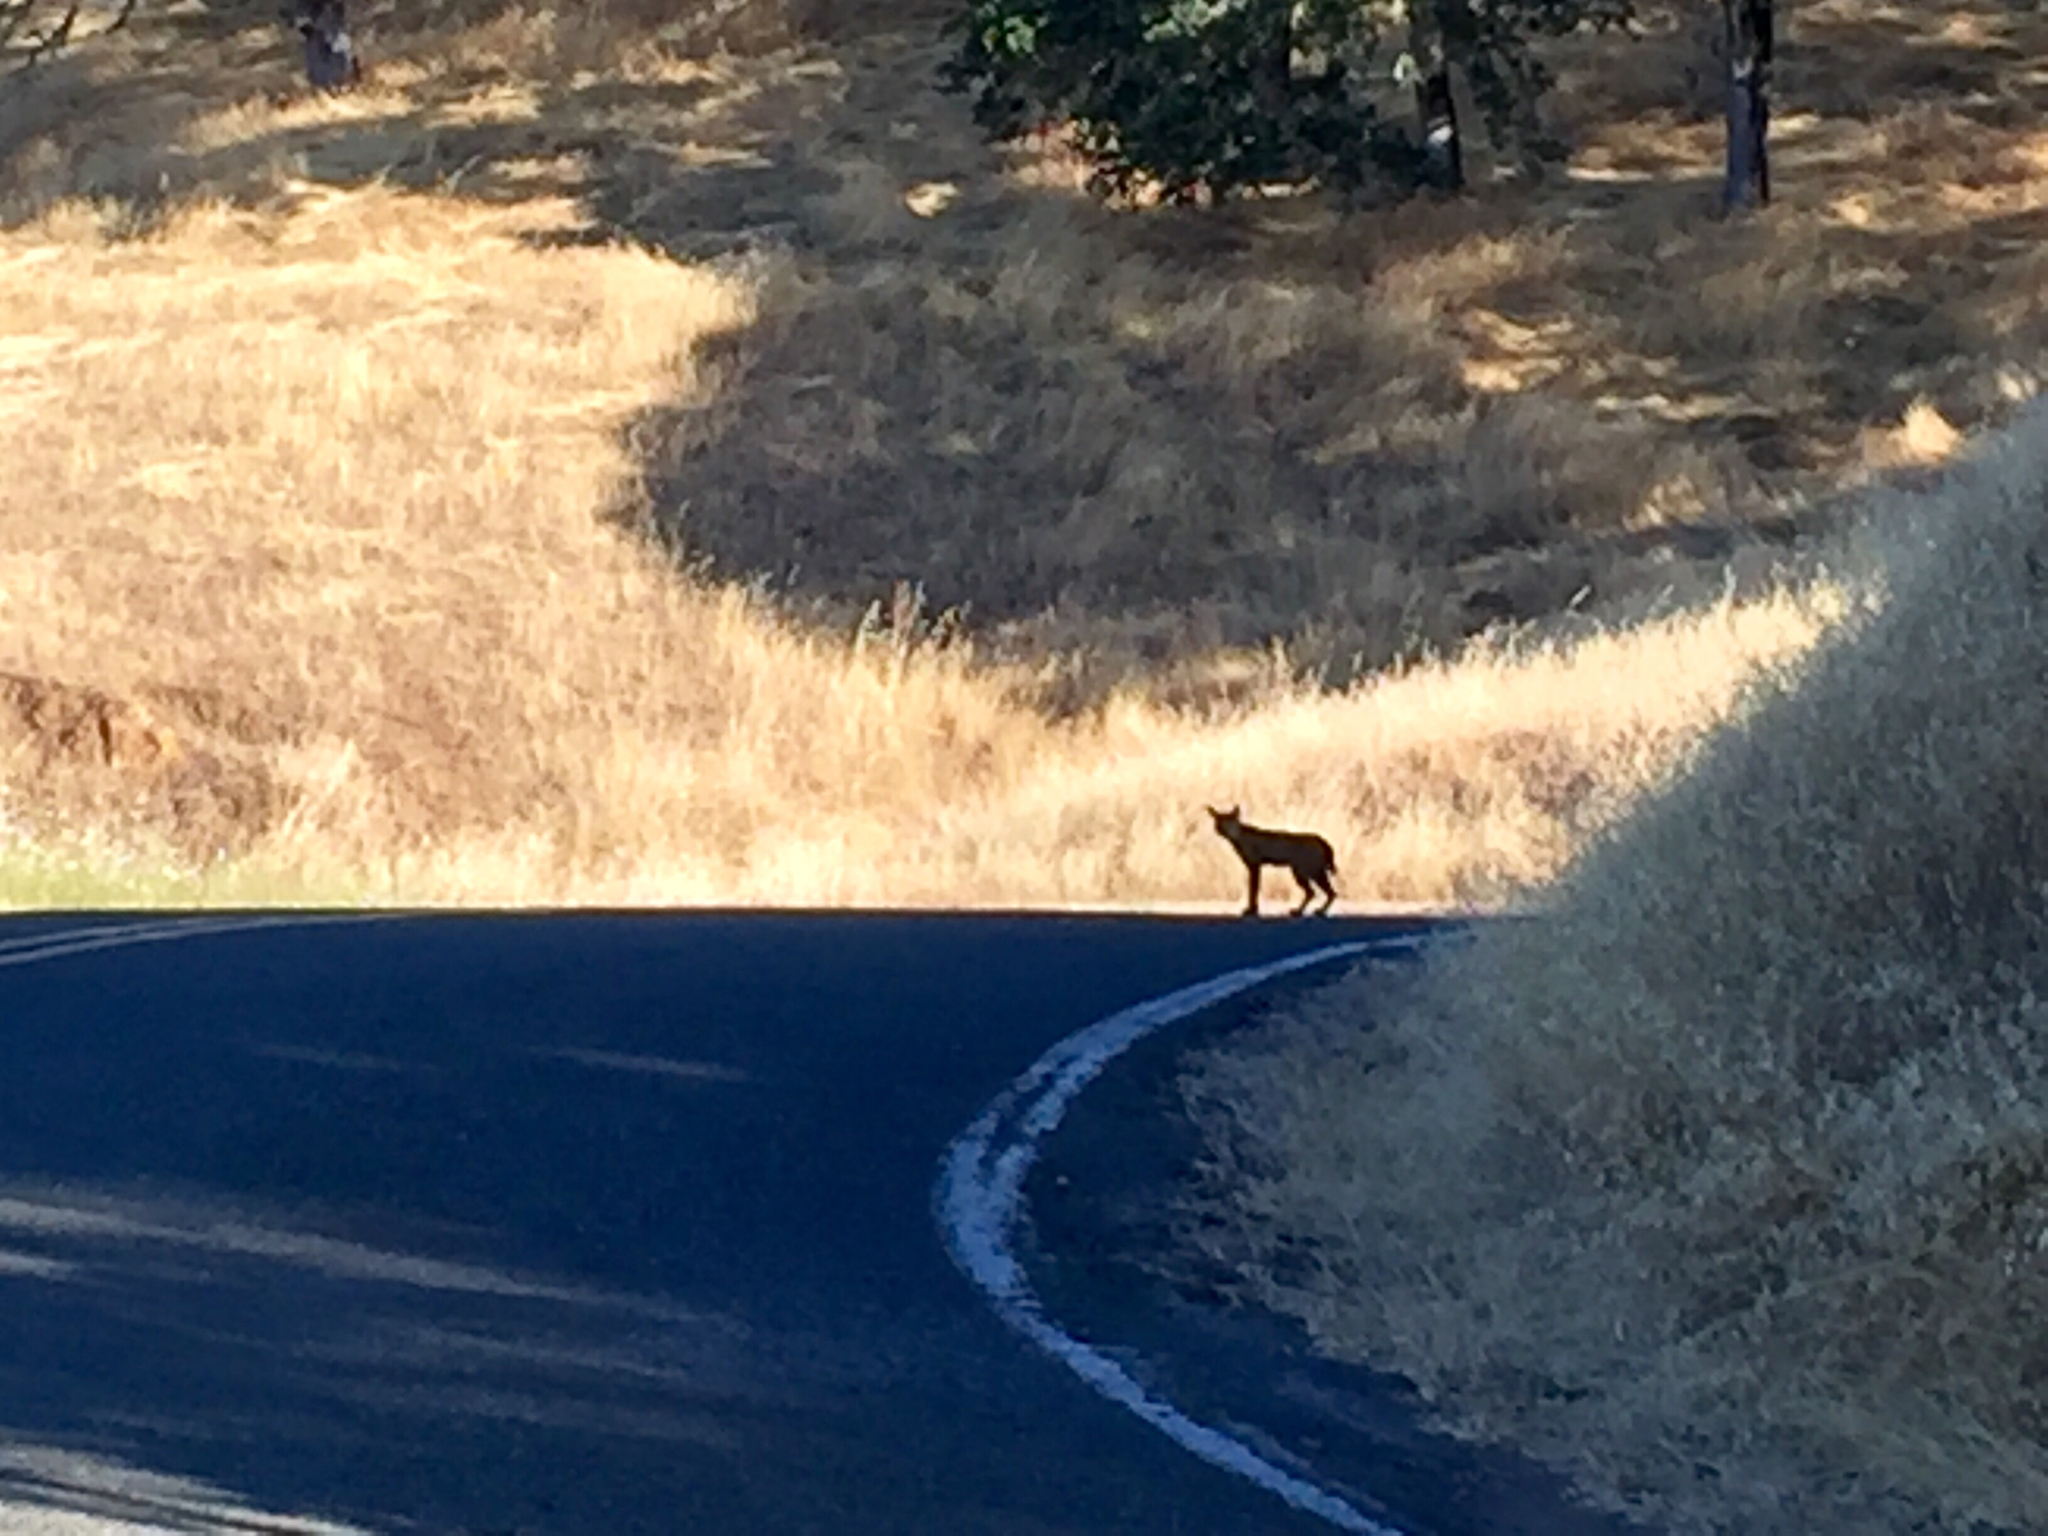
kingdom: Animalia
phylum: Chordata
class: Mammalia
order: Carnivora
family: Felidae
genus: Lynx
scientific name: Lynx rufus
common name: Bobcat
